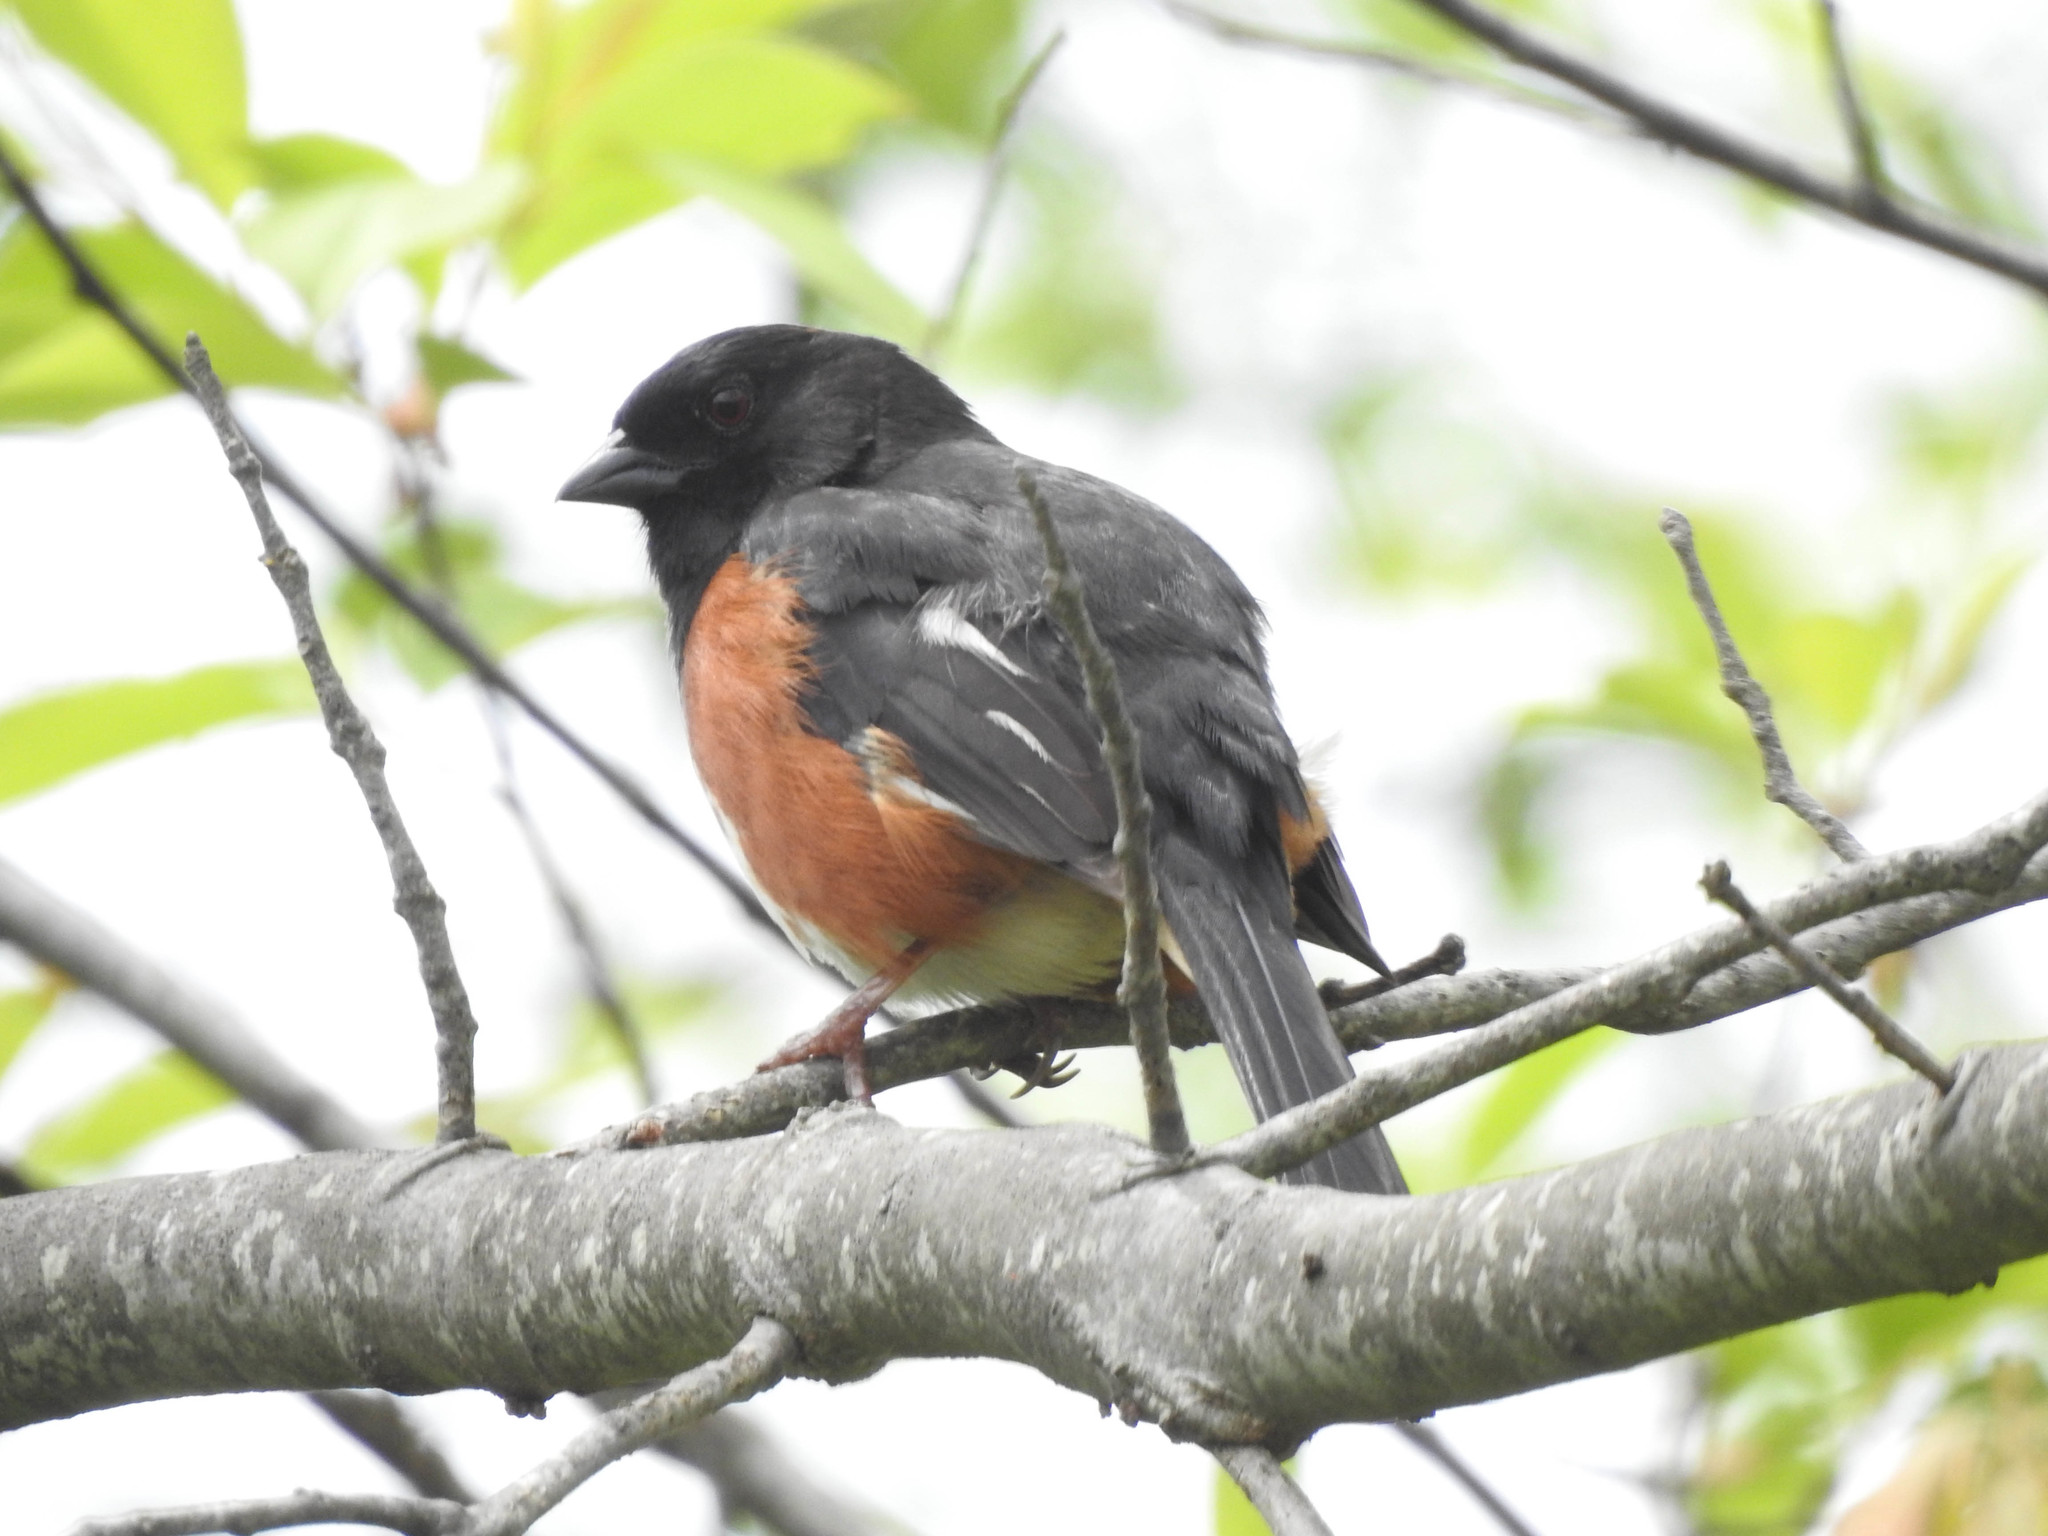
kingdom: Animalia
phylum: Chordata
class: Aves
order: Passeriformes
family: Passerellidae
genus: Pipilo
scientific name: Pipilo erythrophthalmus
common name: Eastern towhee
